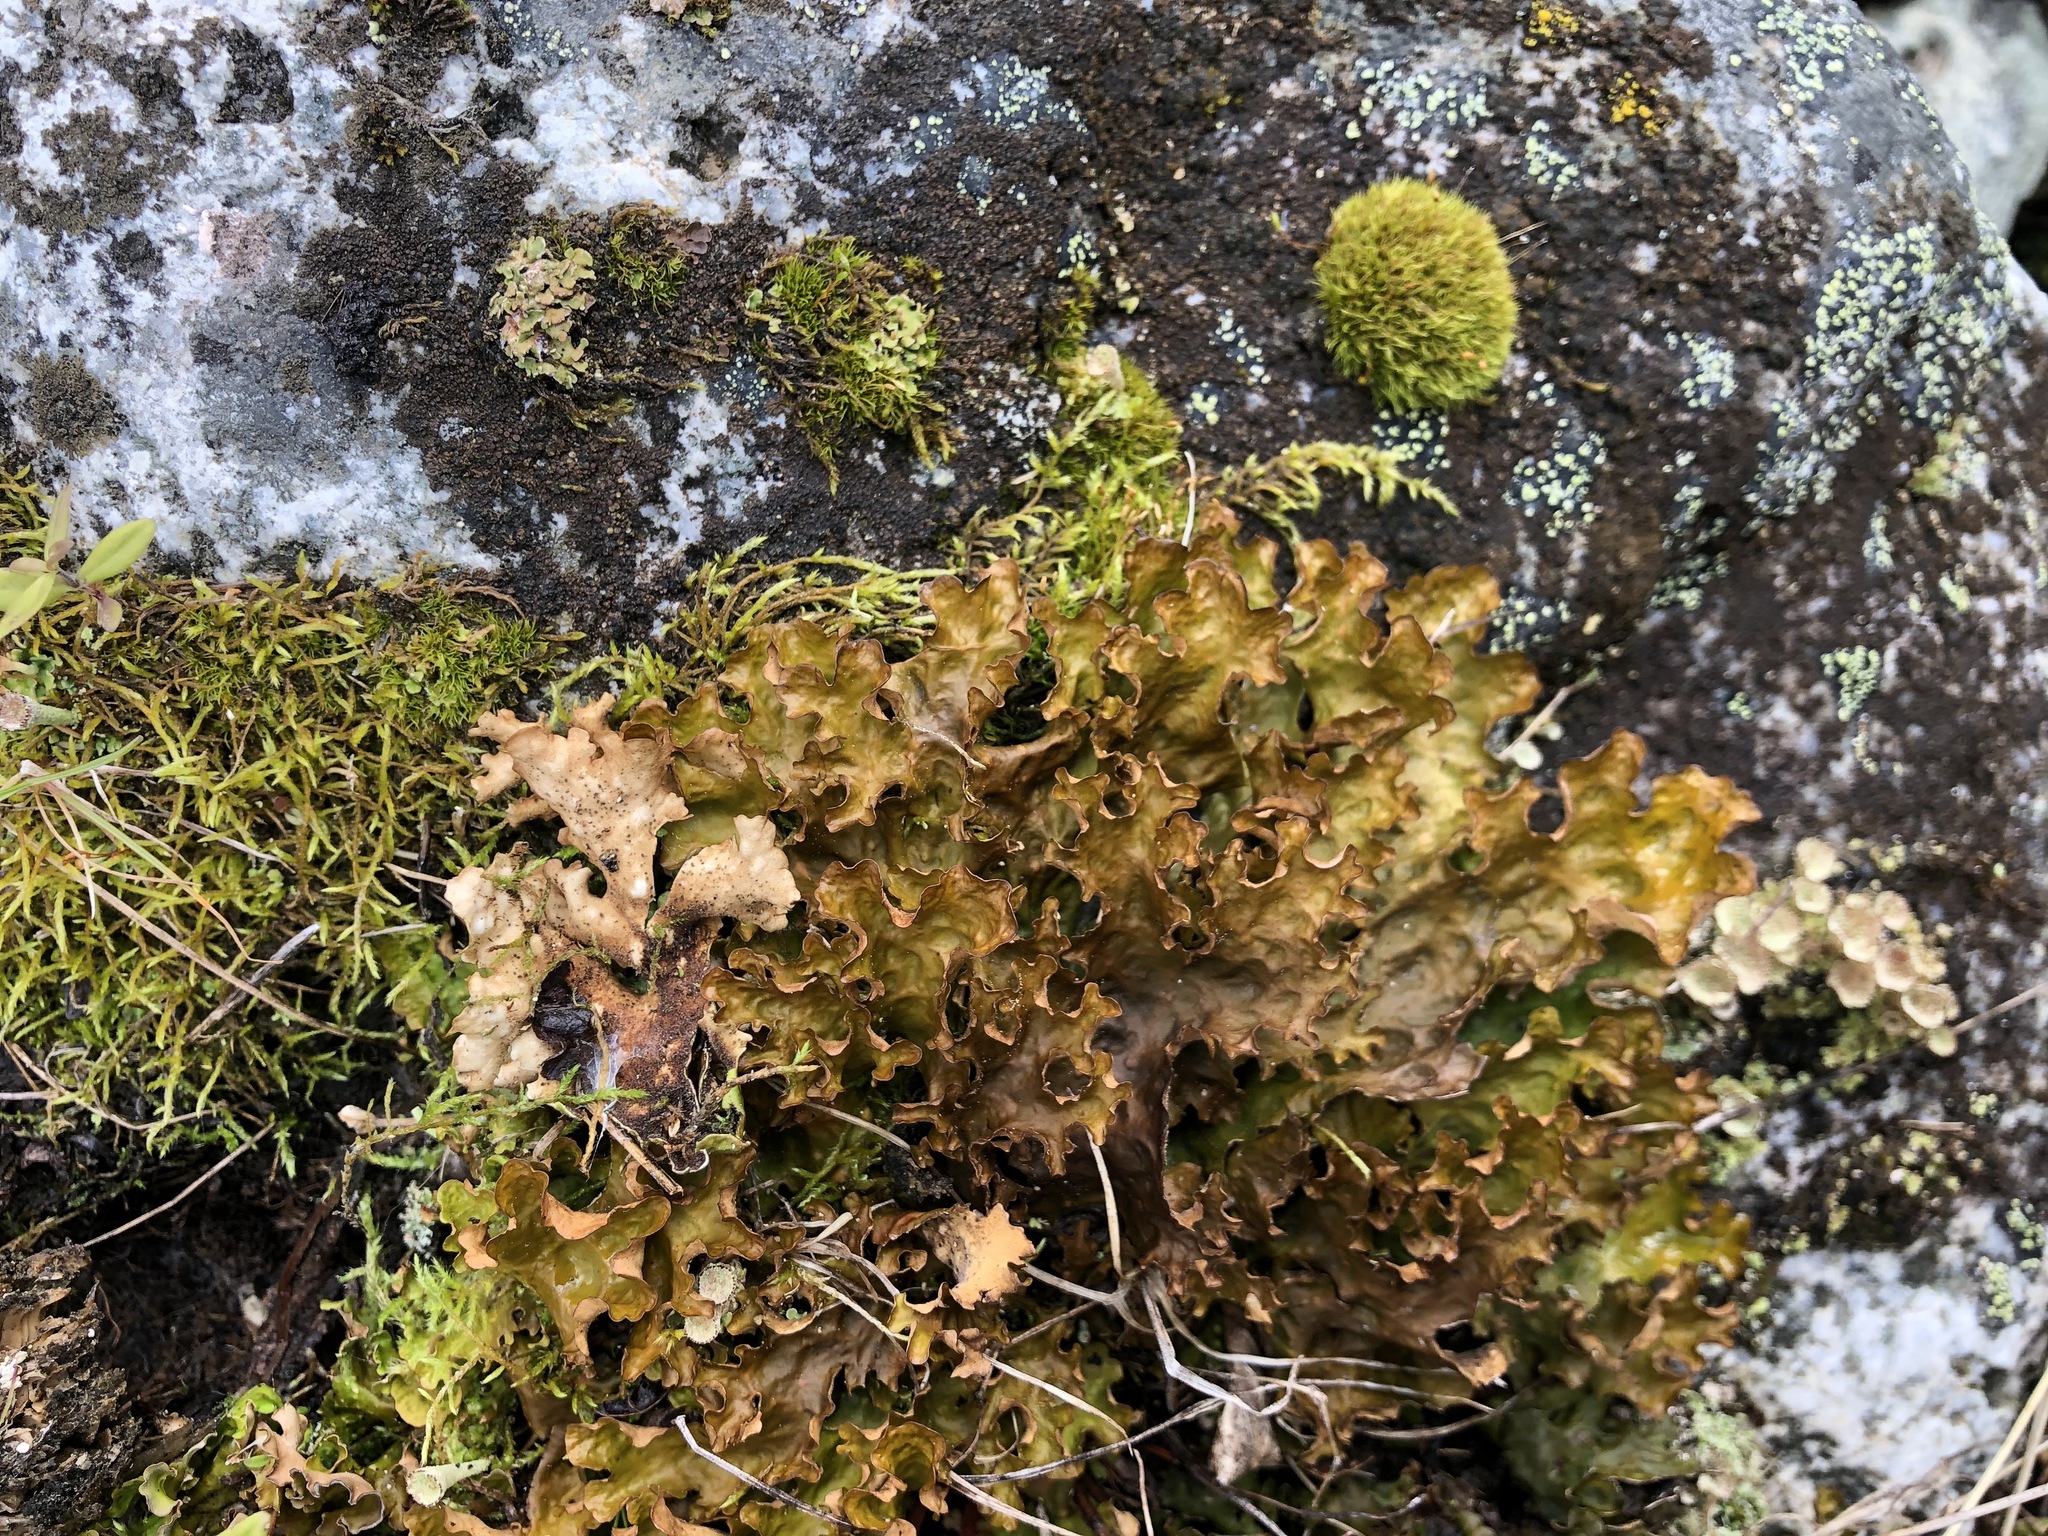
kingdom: Fungi
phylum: Ascomycota
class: Lecanoromycetes
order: Peltigerales
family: Lobariaceae
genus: Lobaria
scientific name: Lobaria linita
